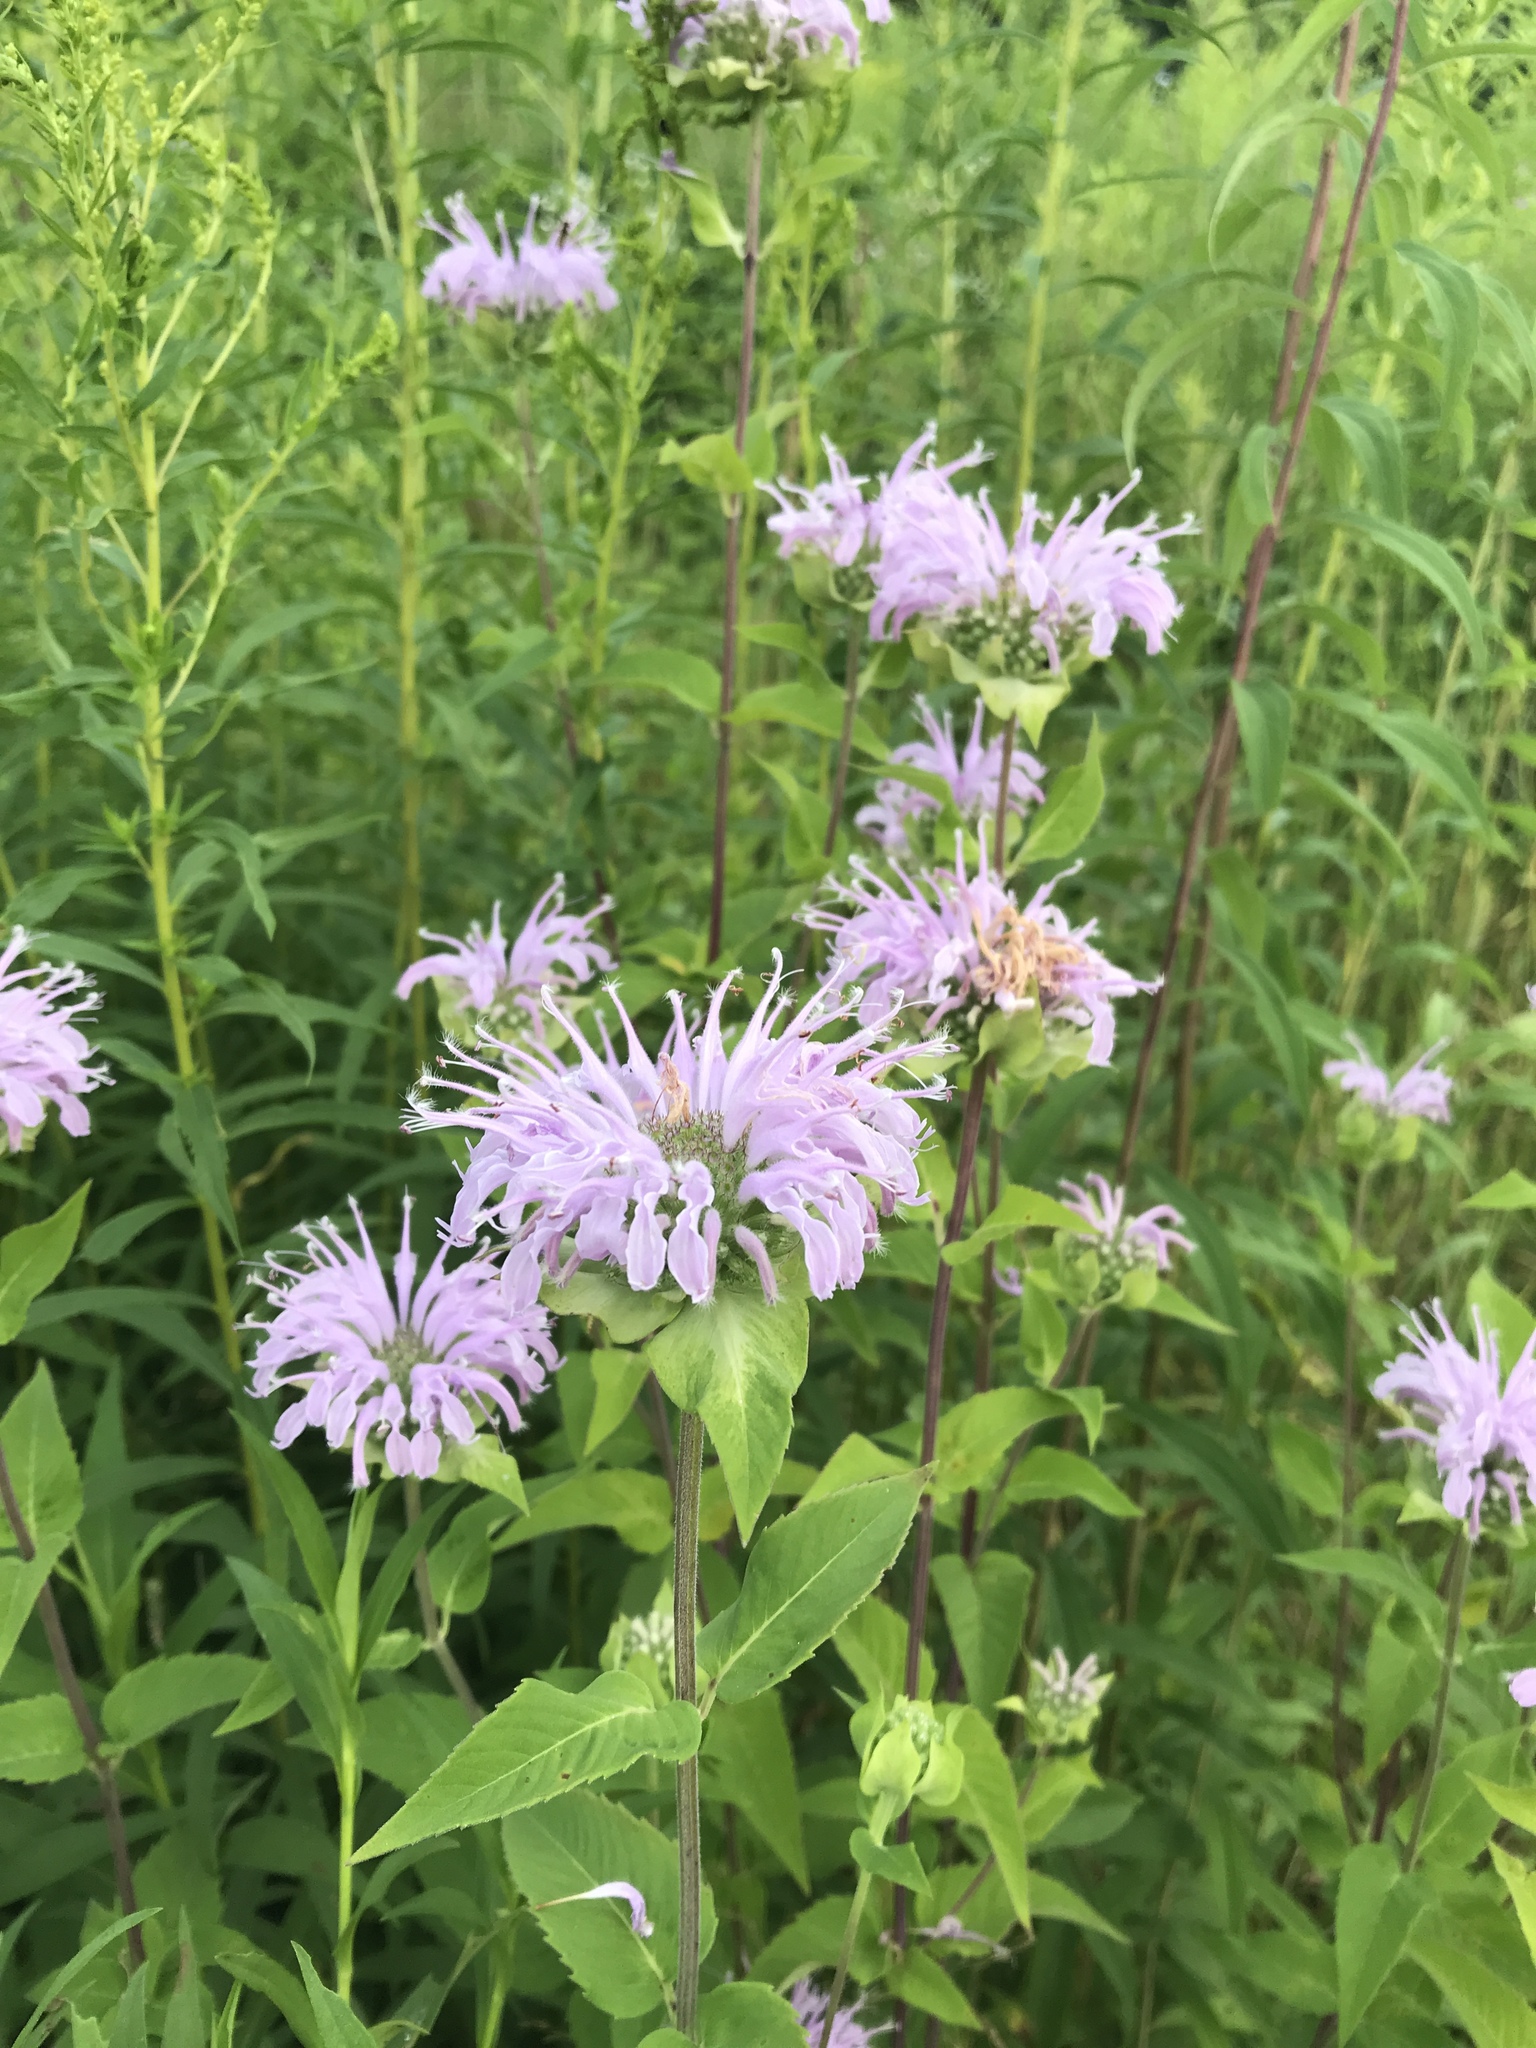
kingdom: Plantae
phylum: Tracheophyta
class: Magnoliopsida
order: Lamiales
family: Lamiaceae
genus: Monarda
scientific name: Monarda fistulosa
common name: Purple beebalm
